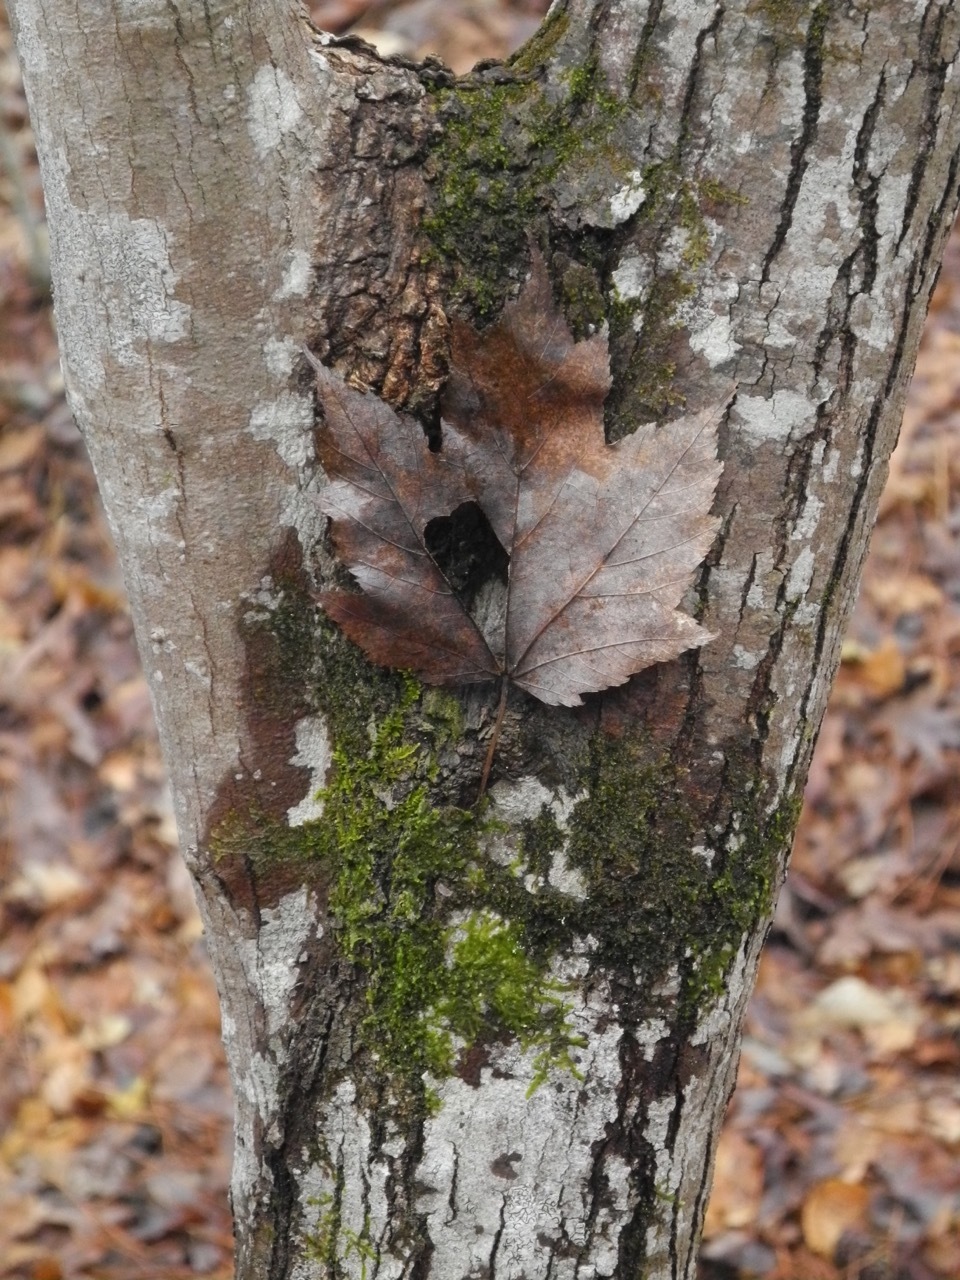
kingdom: Plantae
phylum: Tracheophyta
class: Magnoliopsida
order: Sapindales
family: Sapindaceae
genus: Acer
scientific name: Acer freemanii
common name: Freeman maple
